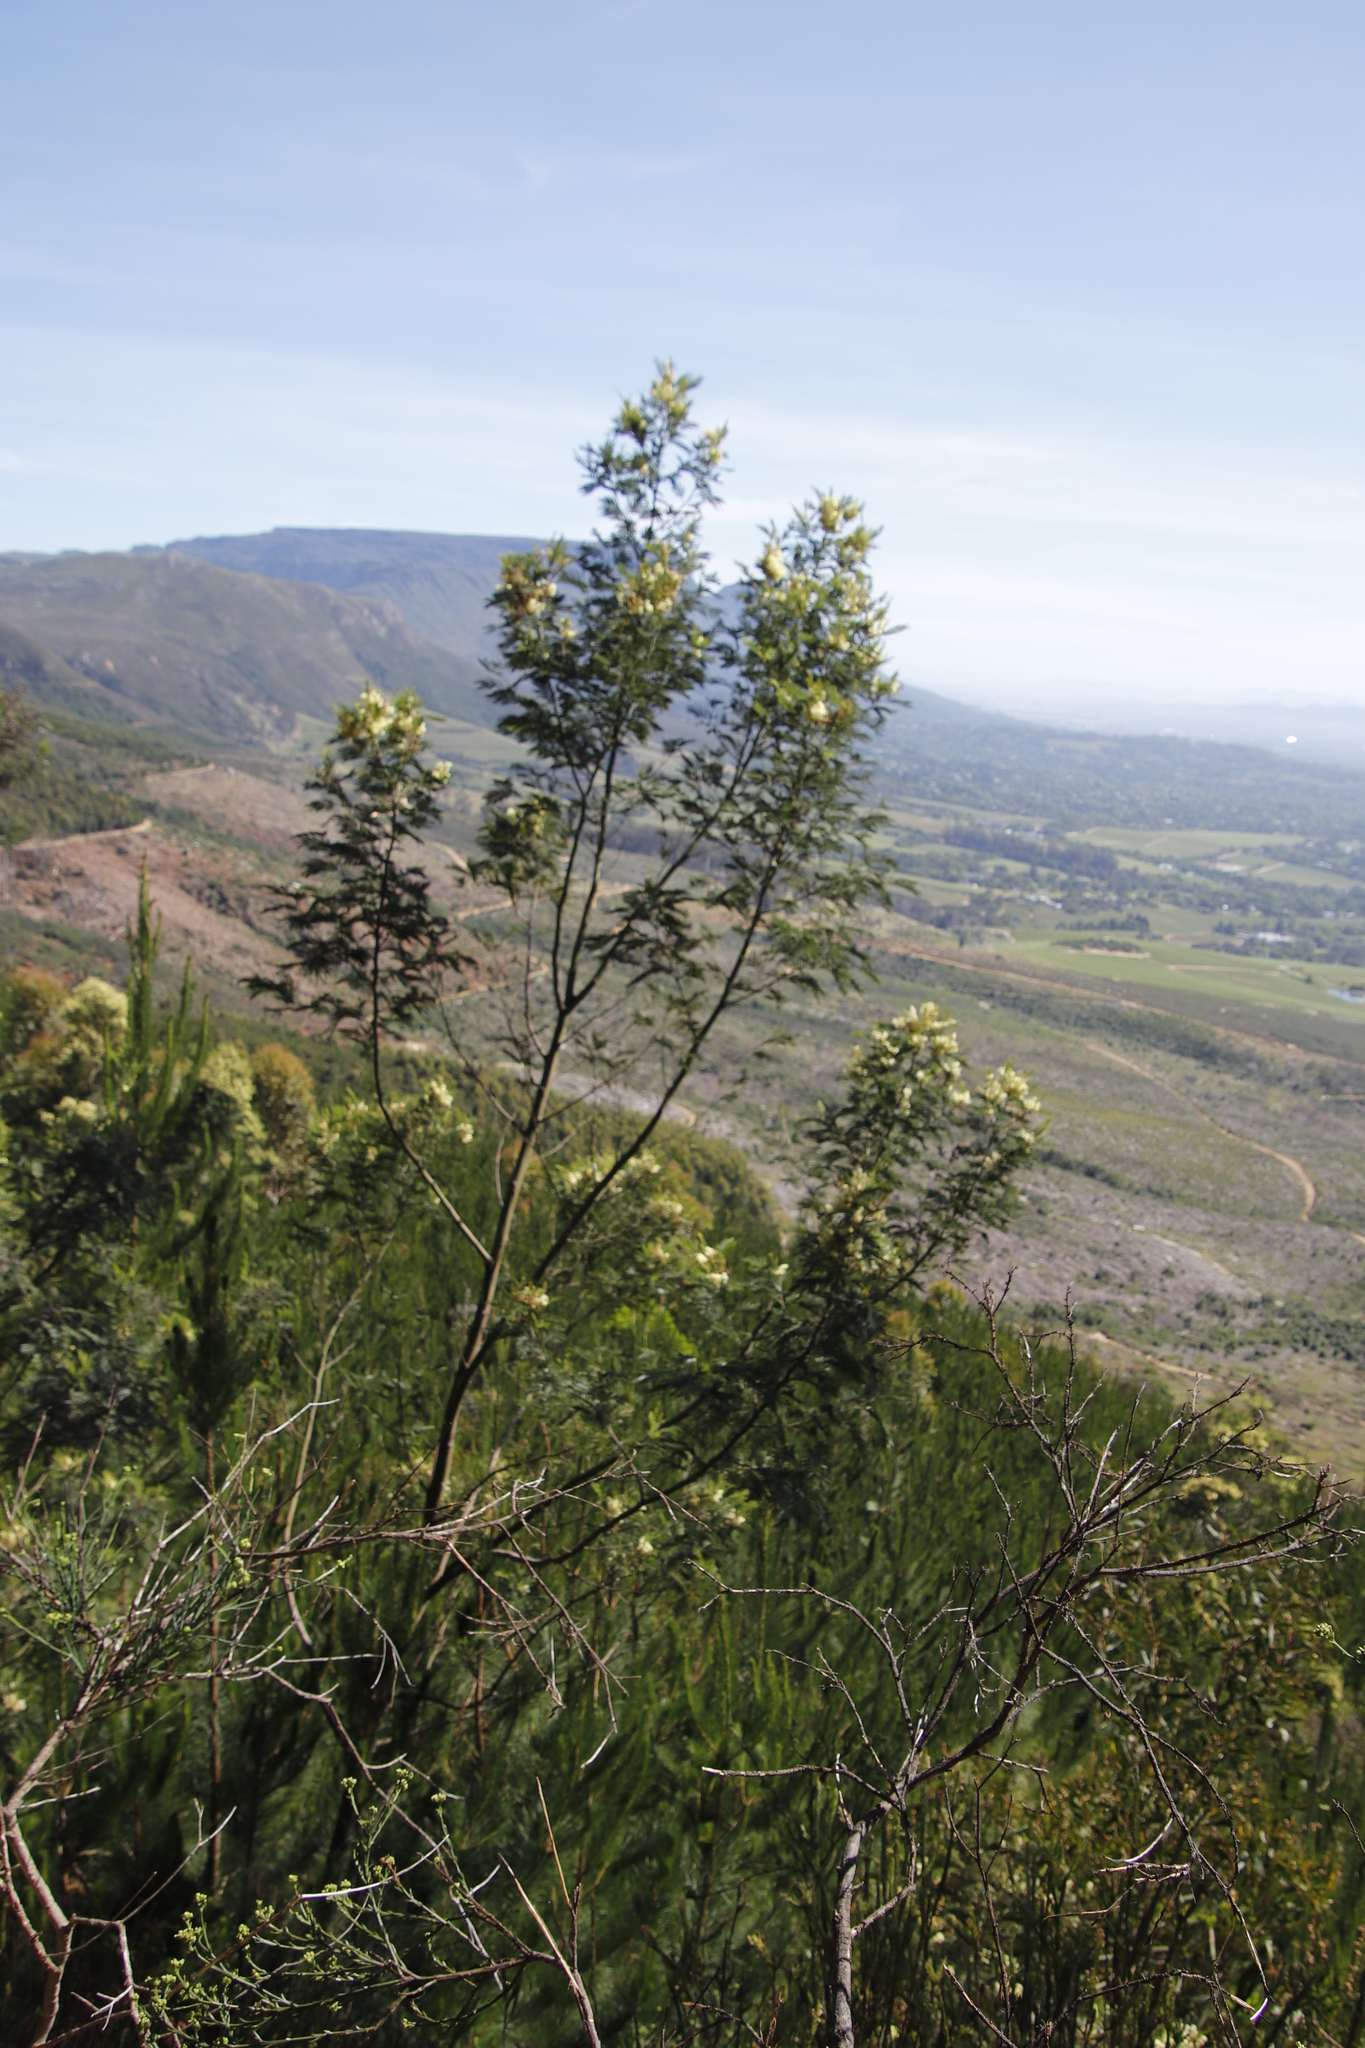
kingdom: Plantae
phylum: Tracheophyta
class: Magnoliopsida
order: Fabales
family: Fabaceae
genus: Acacia
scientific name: Acacia mearnsii
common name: Black wattle
